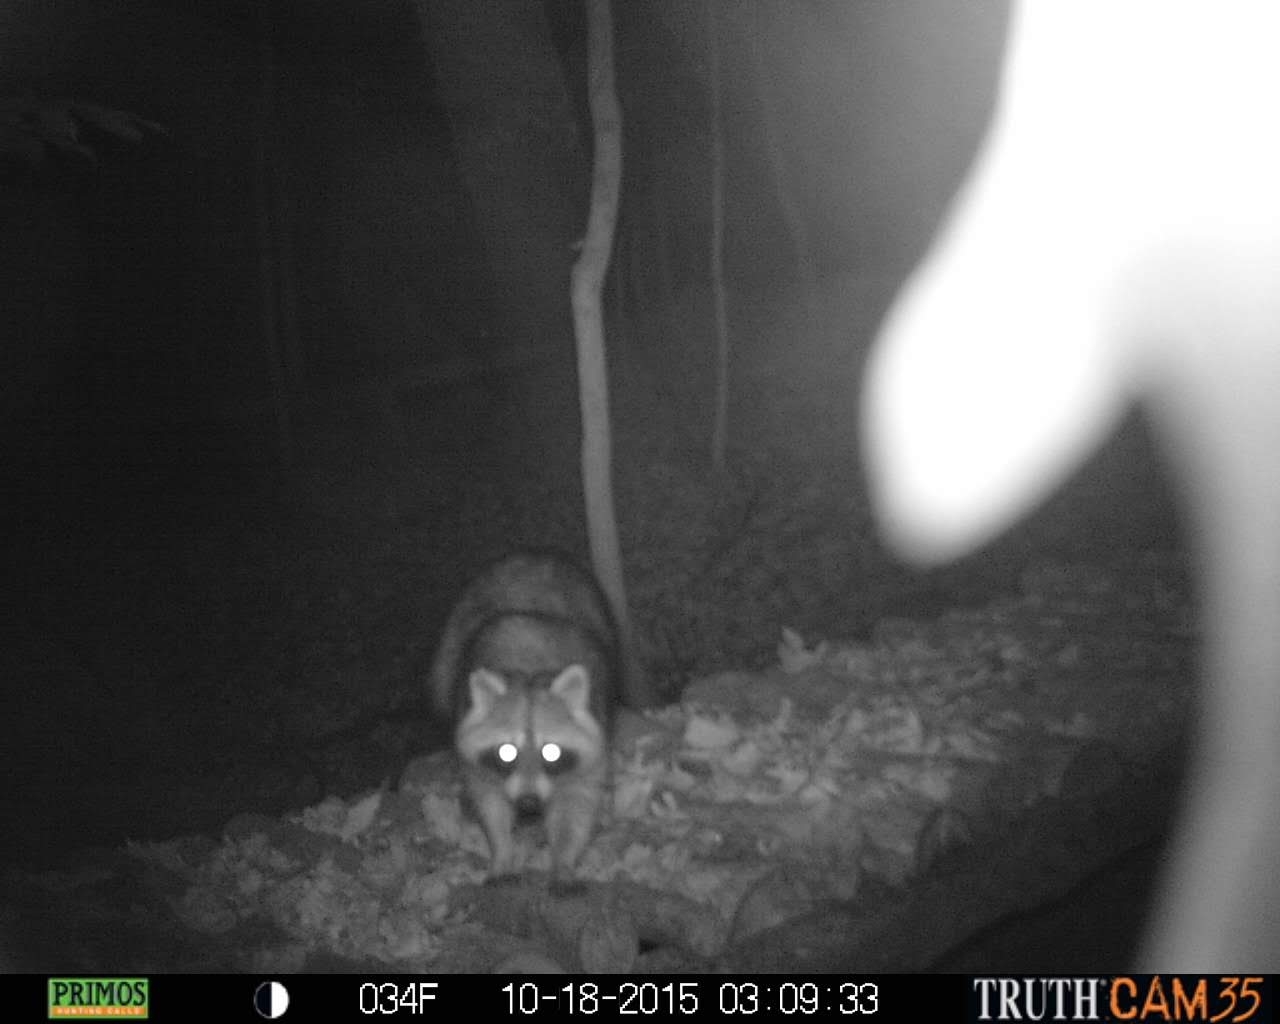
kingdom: Animalia
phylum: Chordata
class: Mammalia
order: Carnivora
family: Procyonidae
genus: Procyon
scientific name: Procyon lotor
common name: Raccoon
